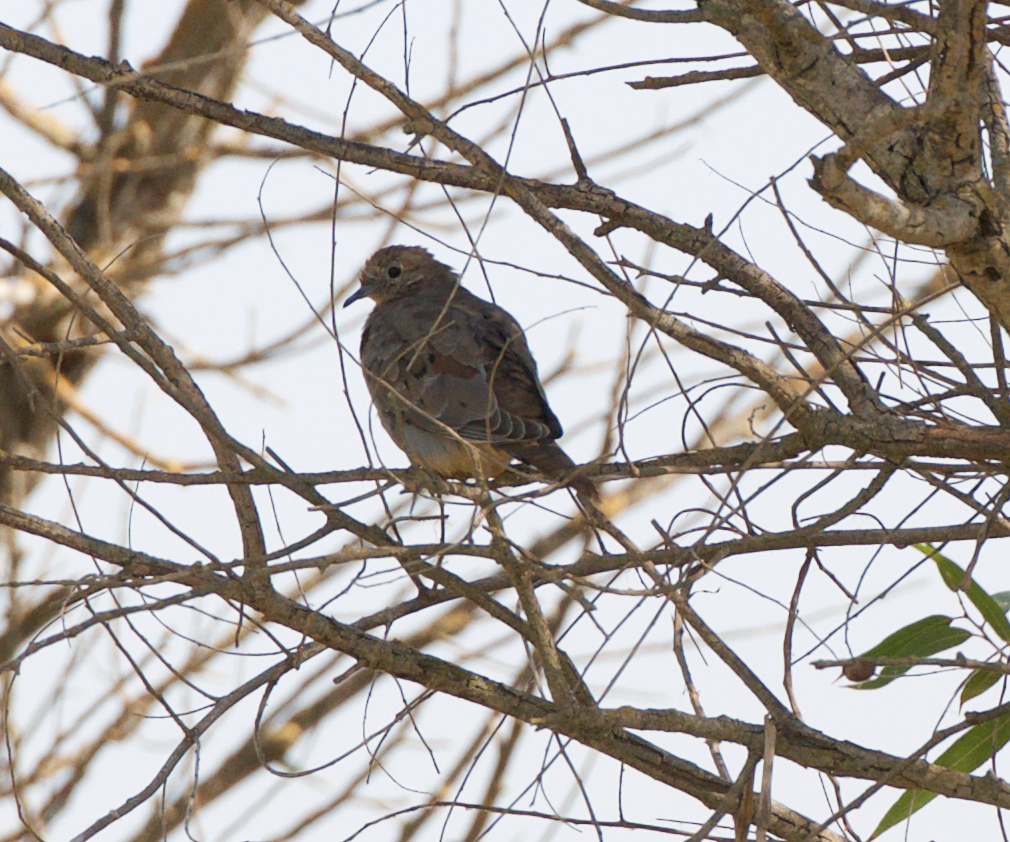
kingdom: Animalia
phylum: Chordata
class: Aves
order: Columbiformes
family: Columbidae
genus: Zenaida
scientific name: Zenaida macroura
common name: Mourning dove
